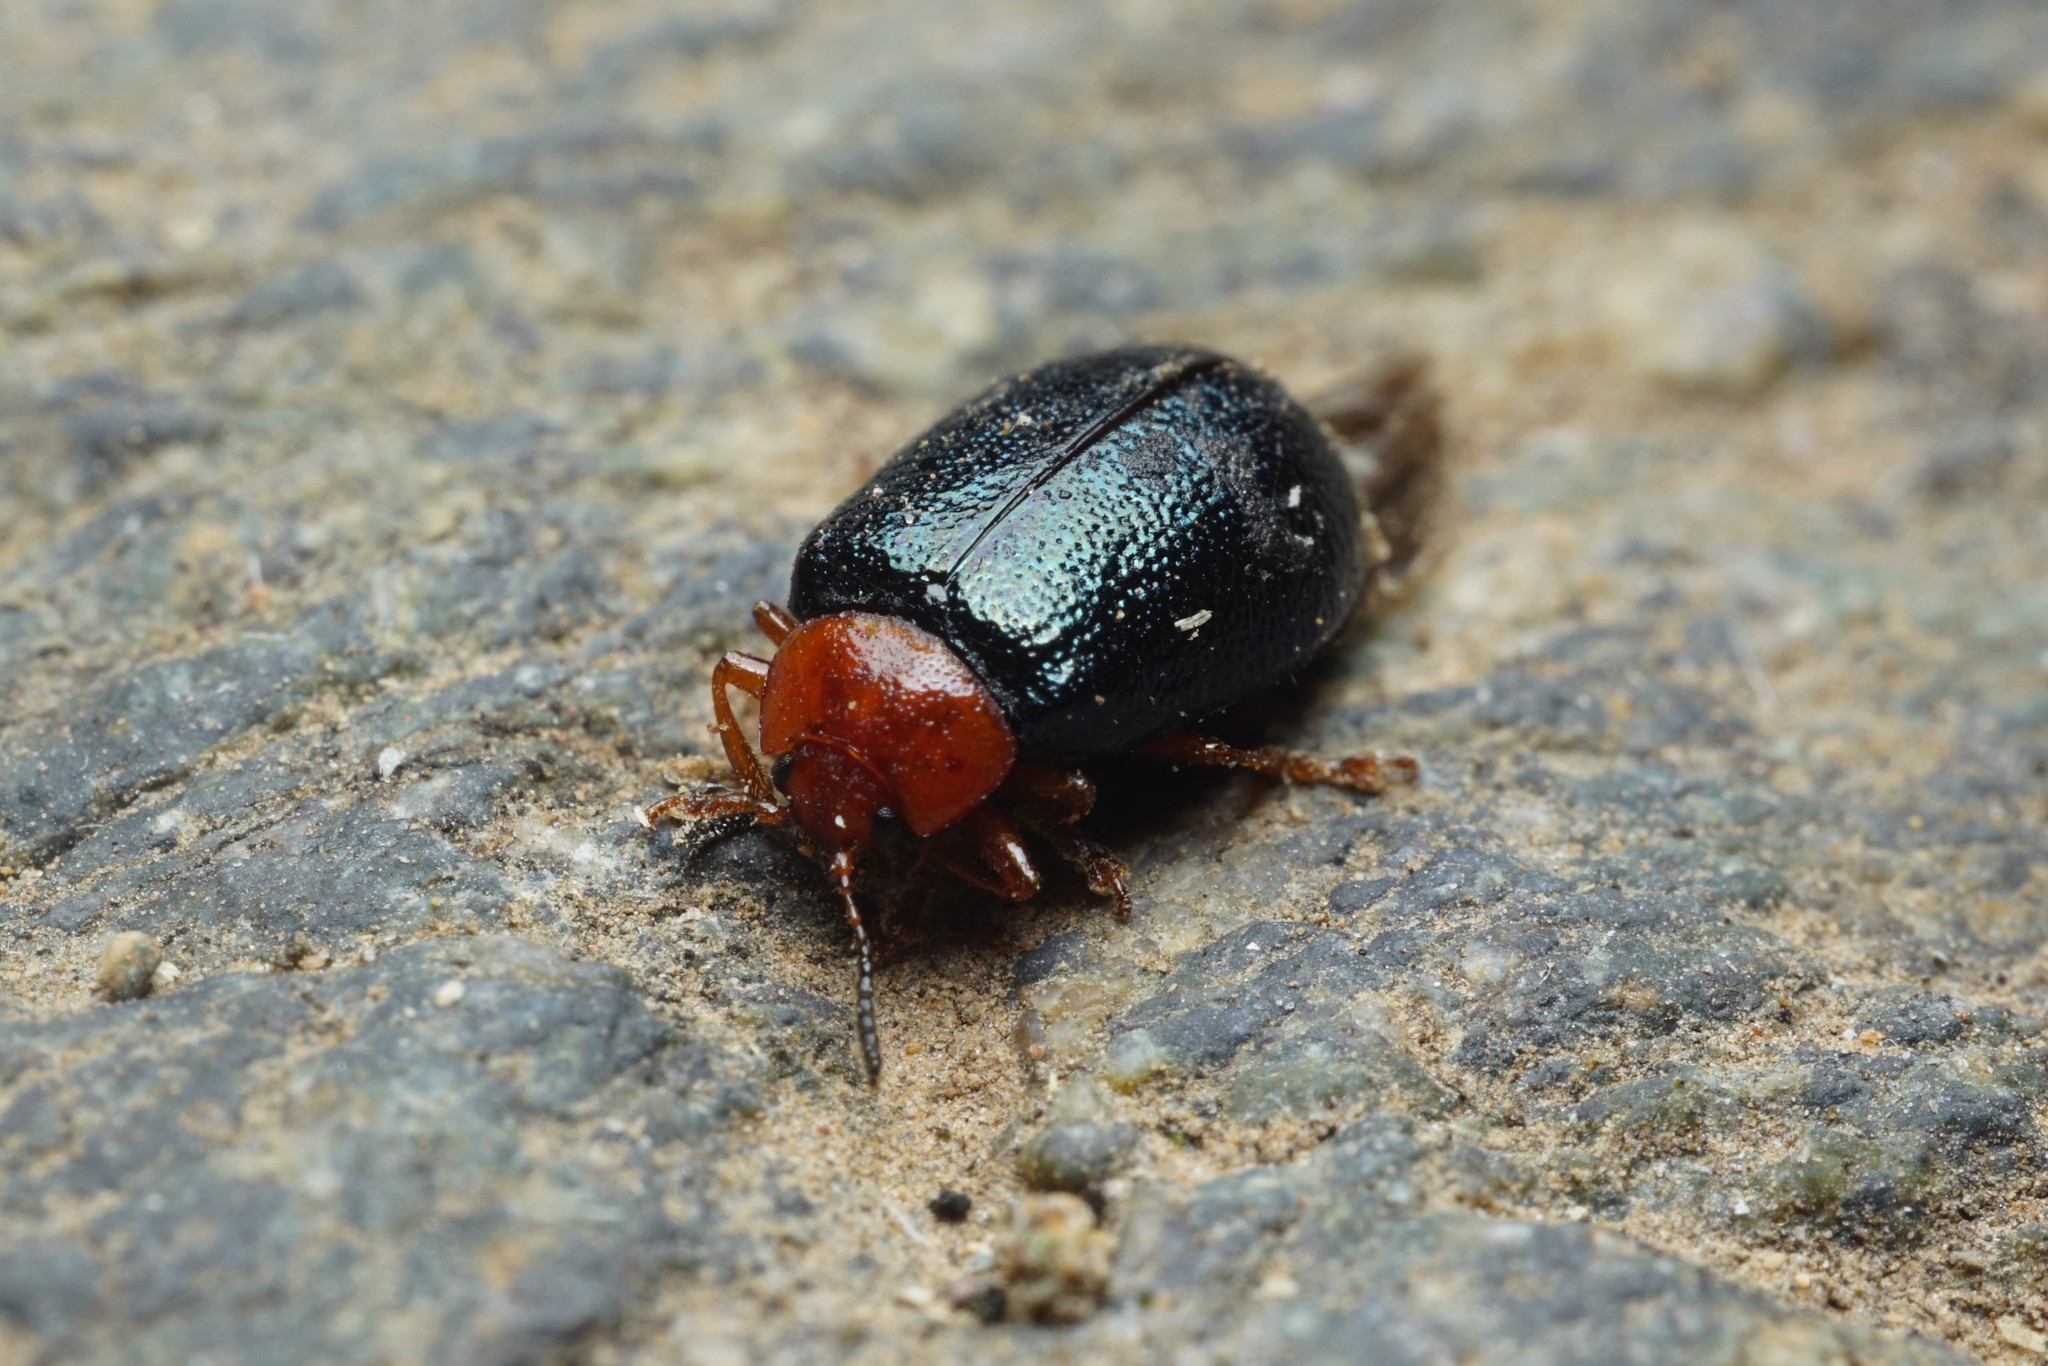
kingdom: Animalia
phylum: Arthropoda
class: Insecta
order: Coleoptera
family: Chrysomelidae
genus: Plagiodera
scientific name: Plagiodera arizonae
